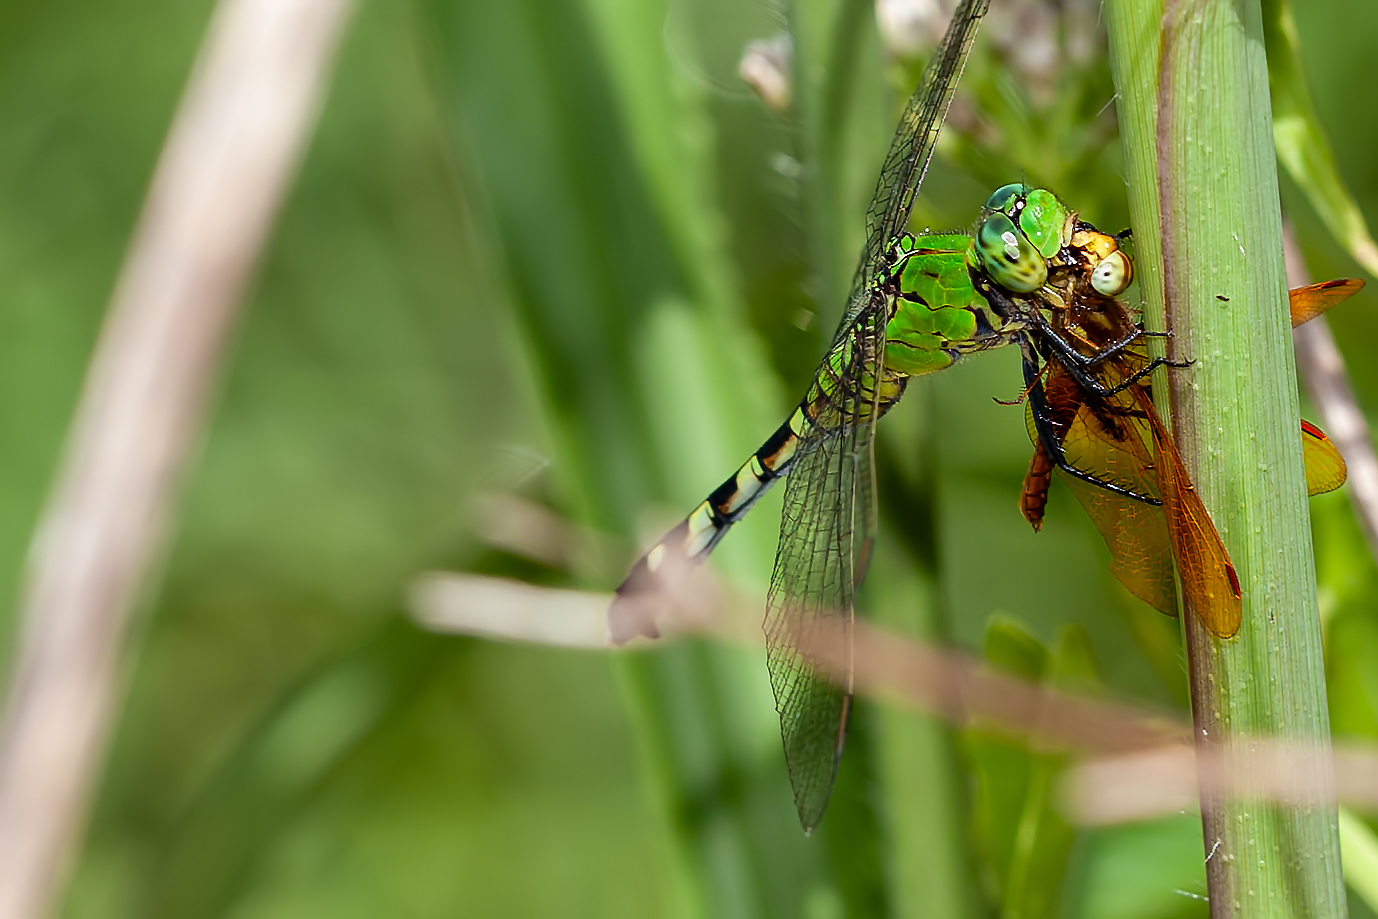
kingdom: Animalia
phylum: Arthropoda
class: Insecta
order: Odonata
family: Libellulidae
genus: Erythemis
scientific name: Erythemis simplicicollis
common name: Eastern pondhawk
